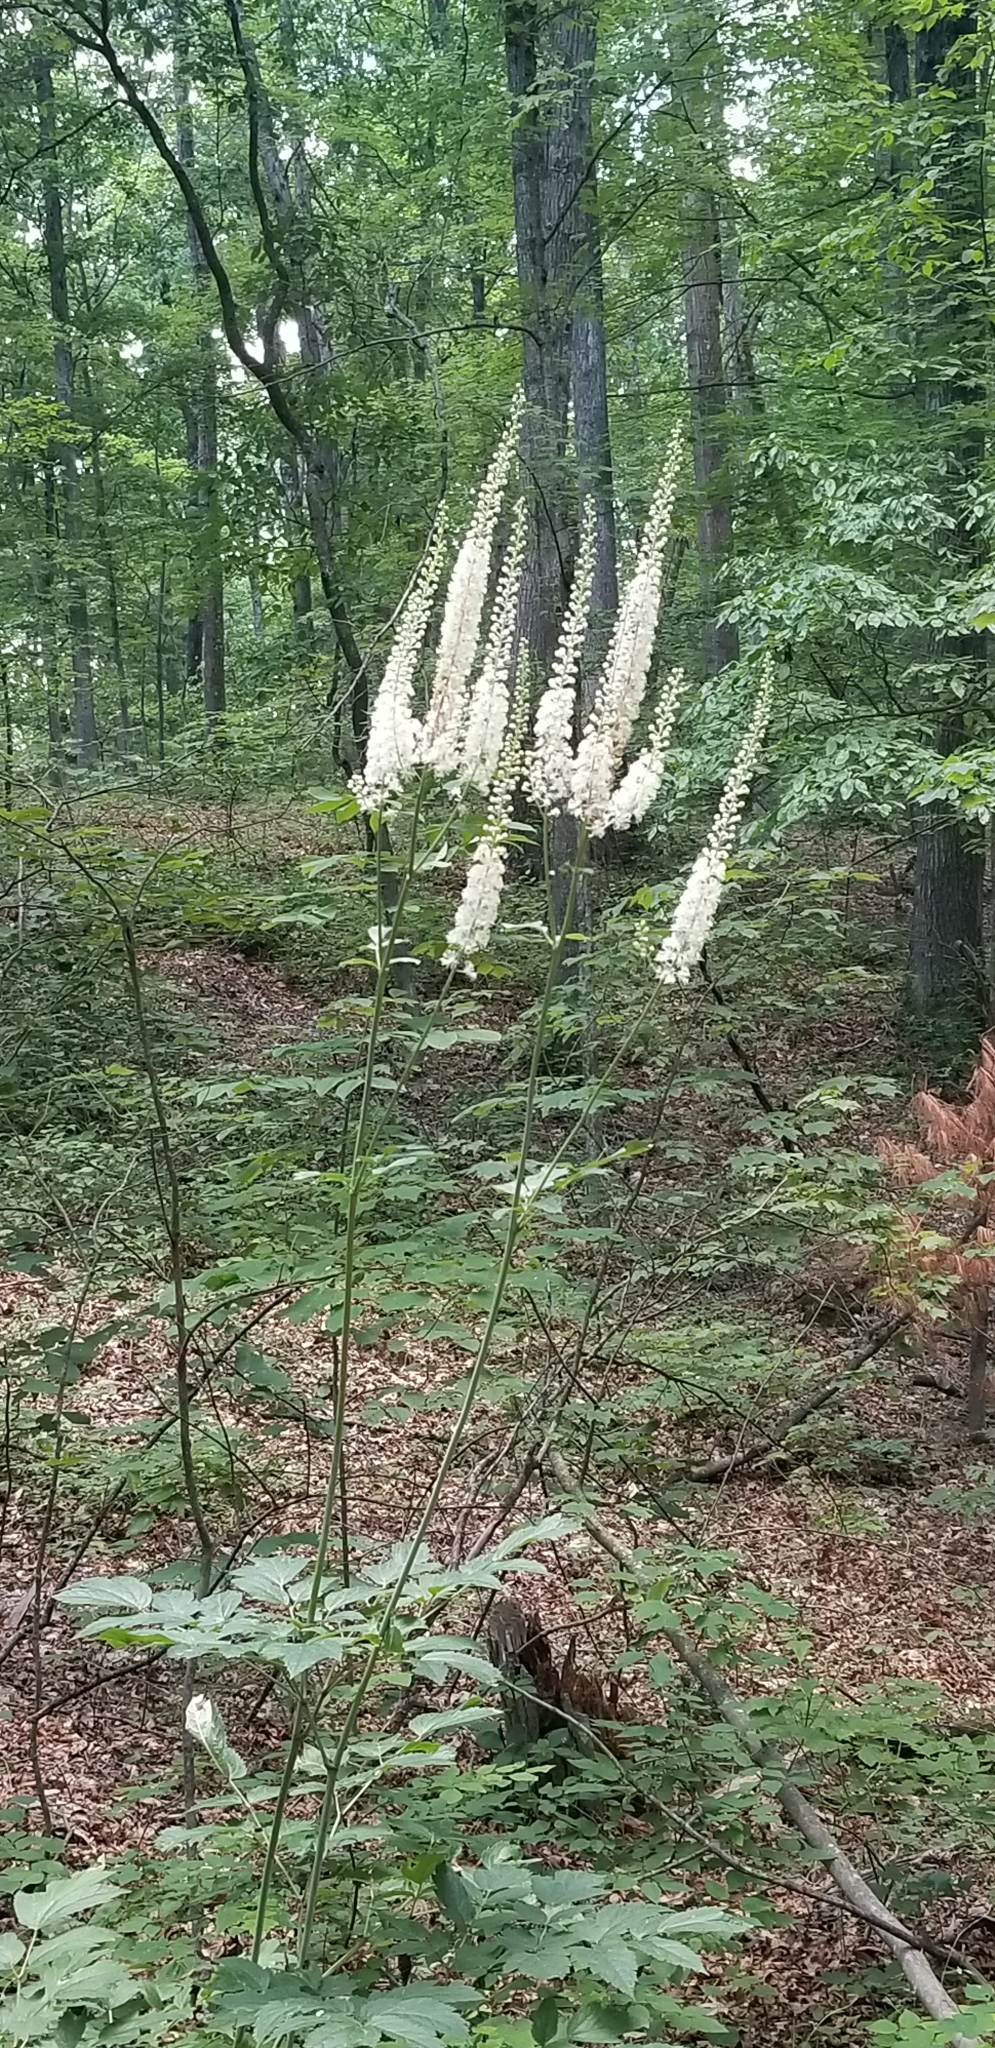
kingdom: Plantae
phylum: Tracheophyta
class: Magnoliopsida
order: Ranunculales
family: Ranunculaceae
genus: Actaea
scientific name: Actaea racemosa
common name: Black cohosh
